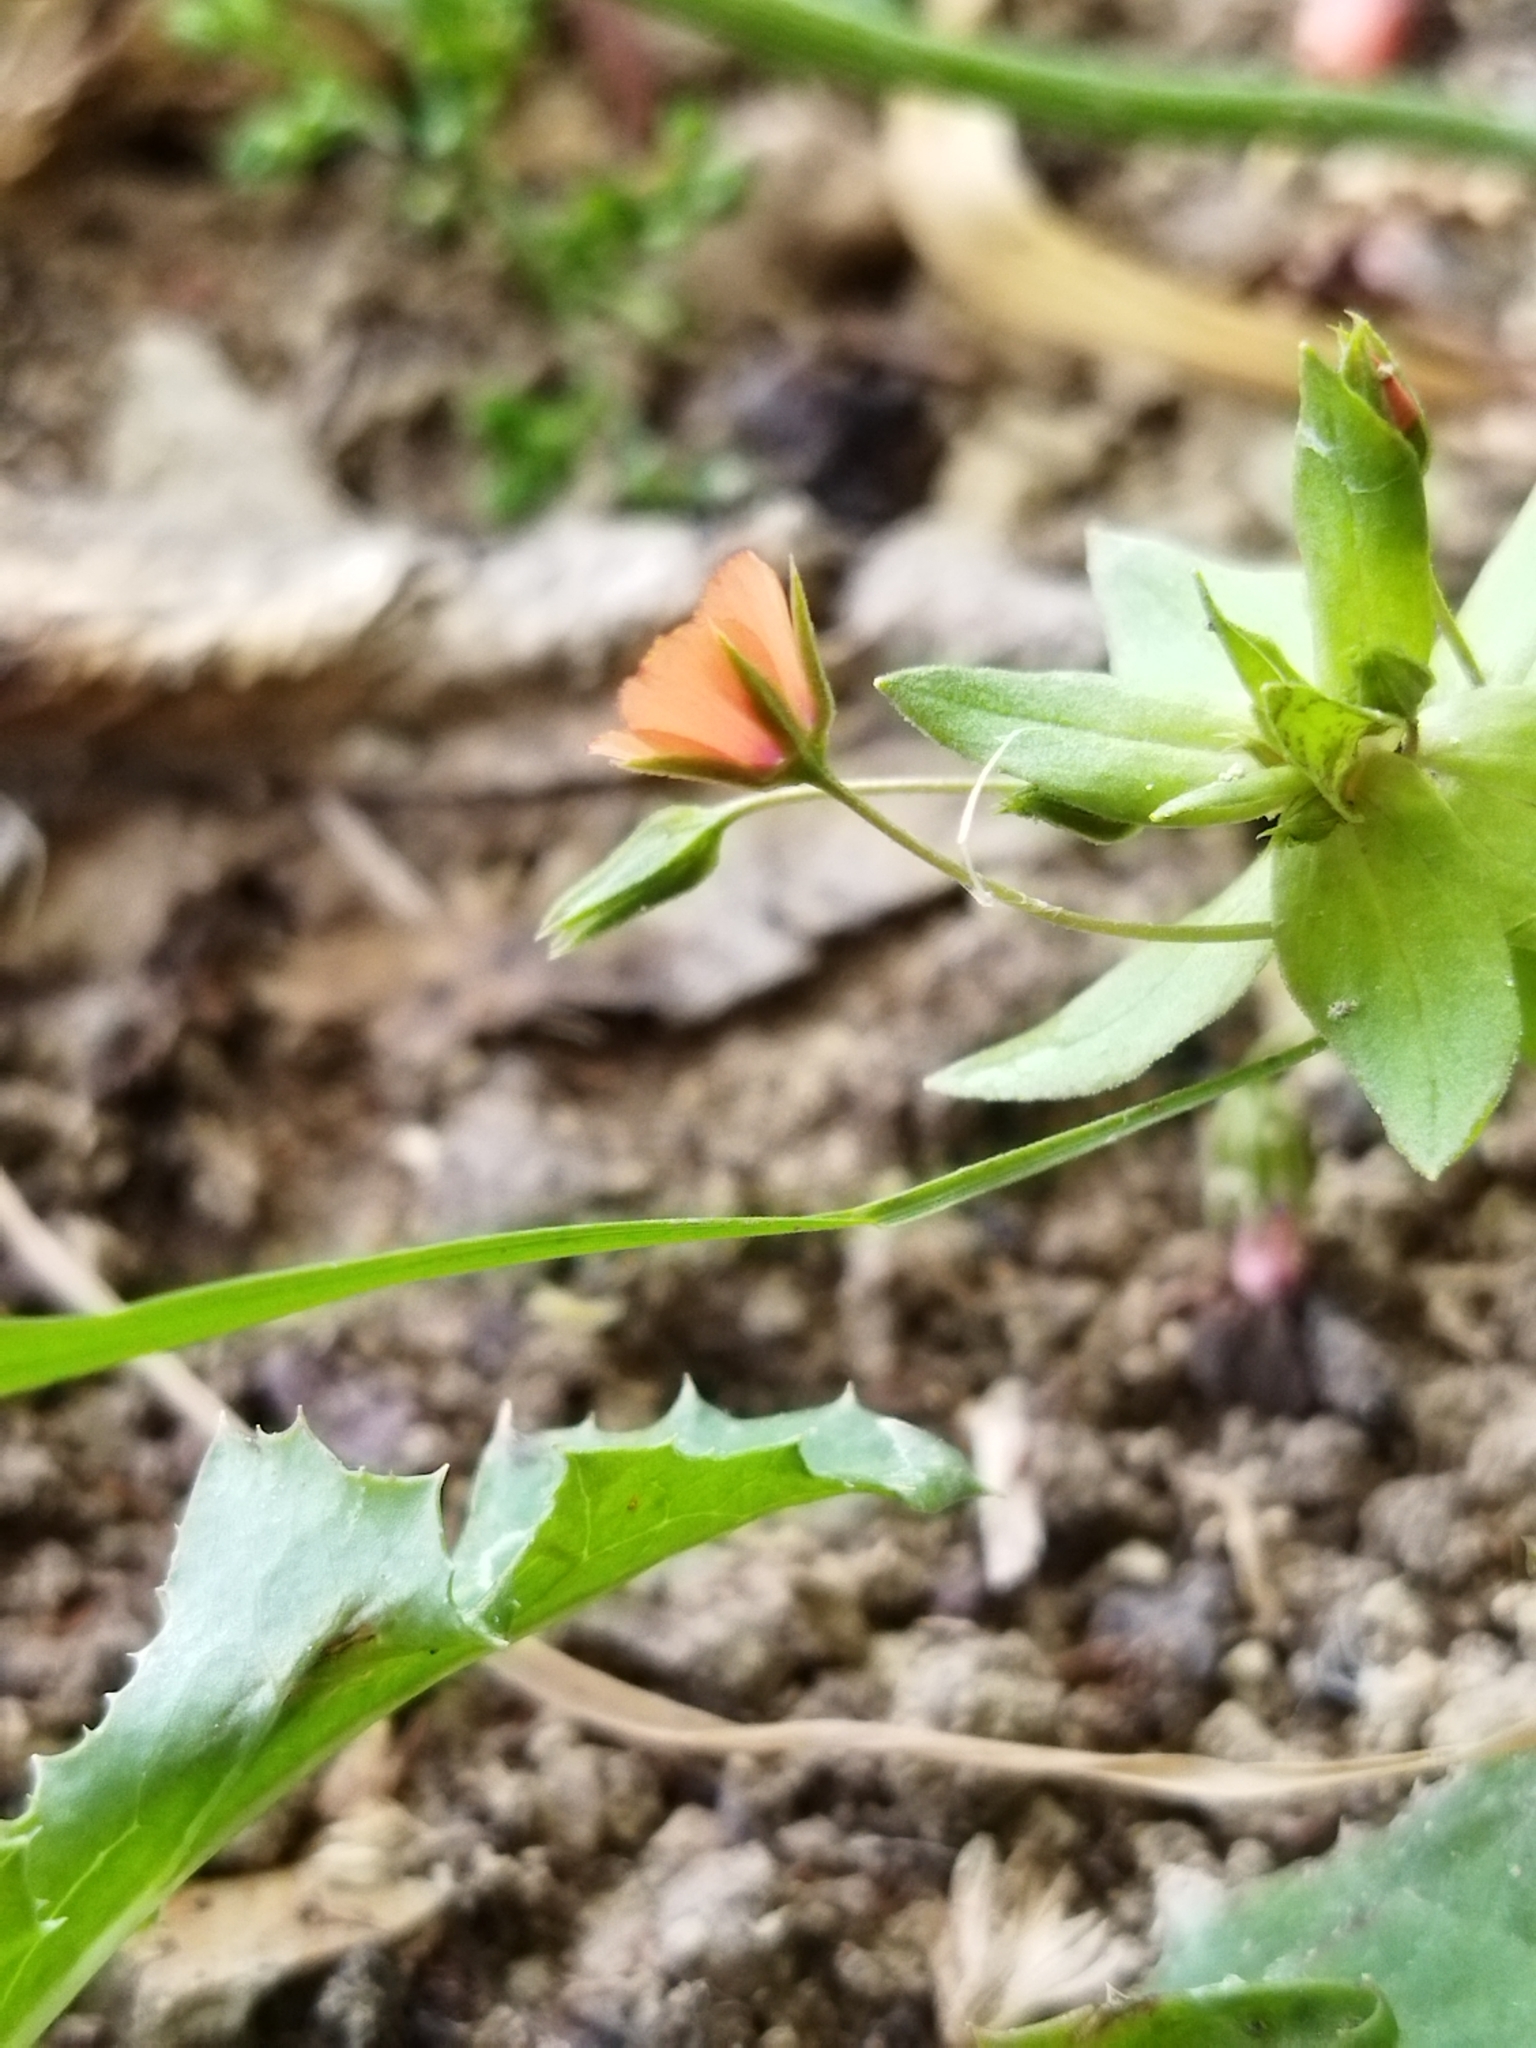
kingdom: Plantae
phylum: Tracheophyta
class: Magnoliopsida
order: Ericales
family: Primulaceae
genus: Lysimachia
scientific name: Lysimachia arvensis
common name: Scarlet pimpernel
